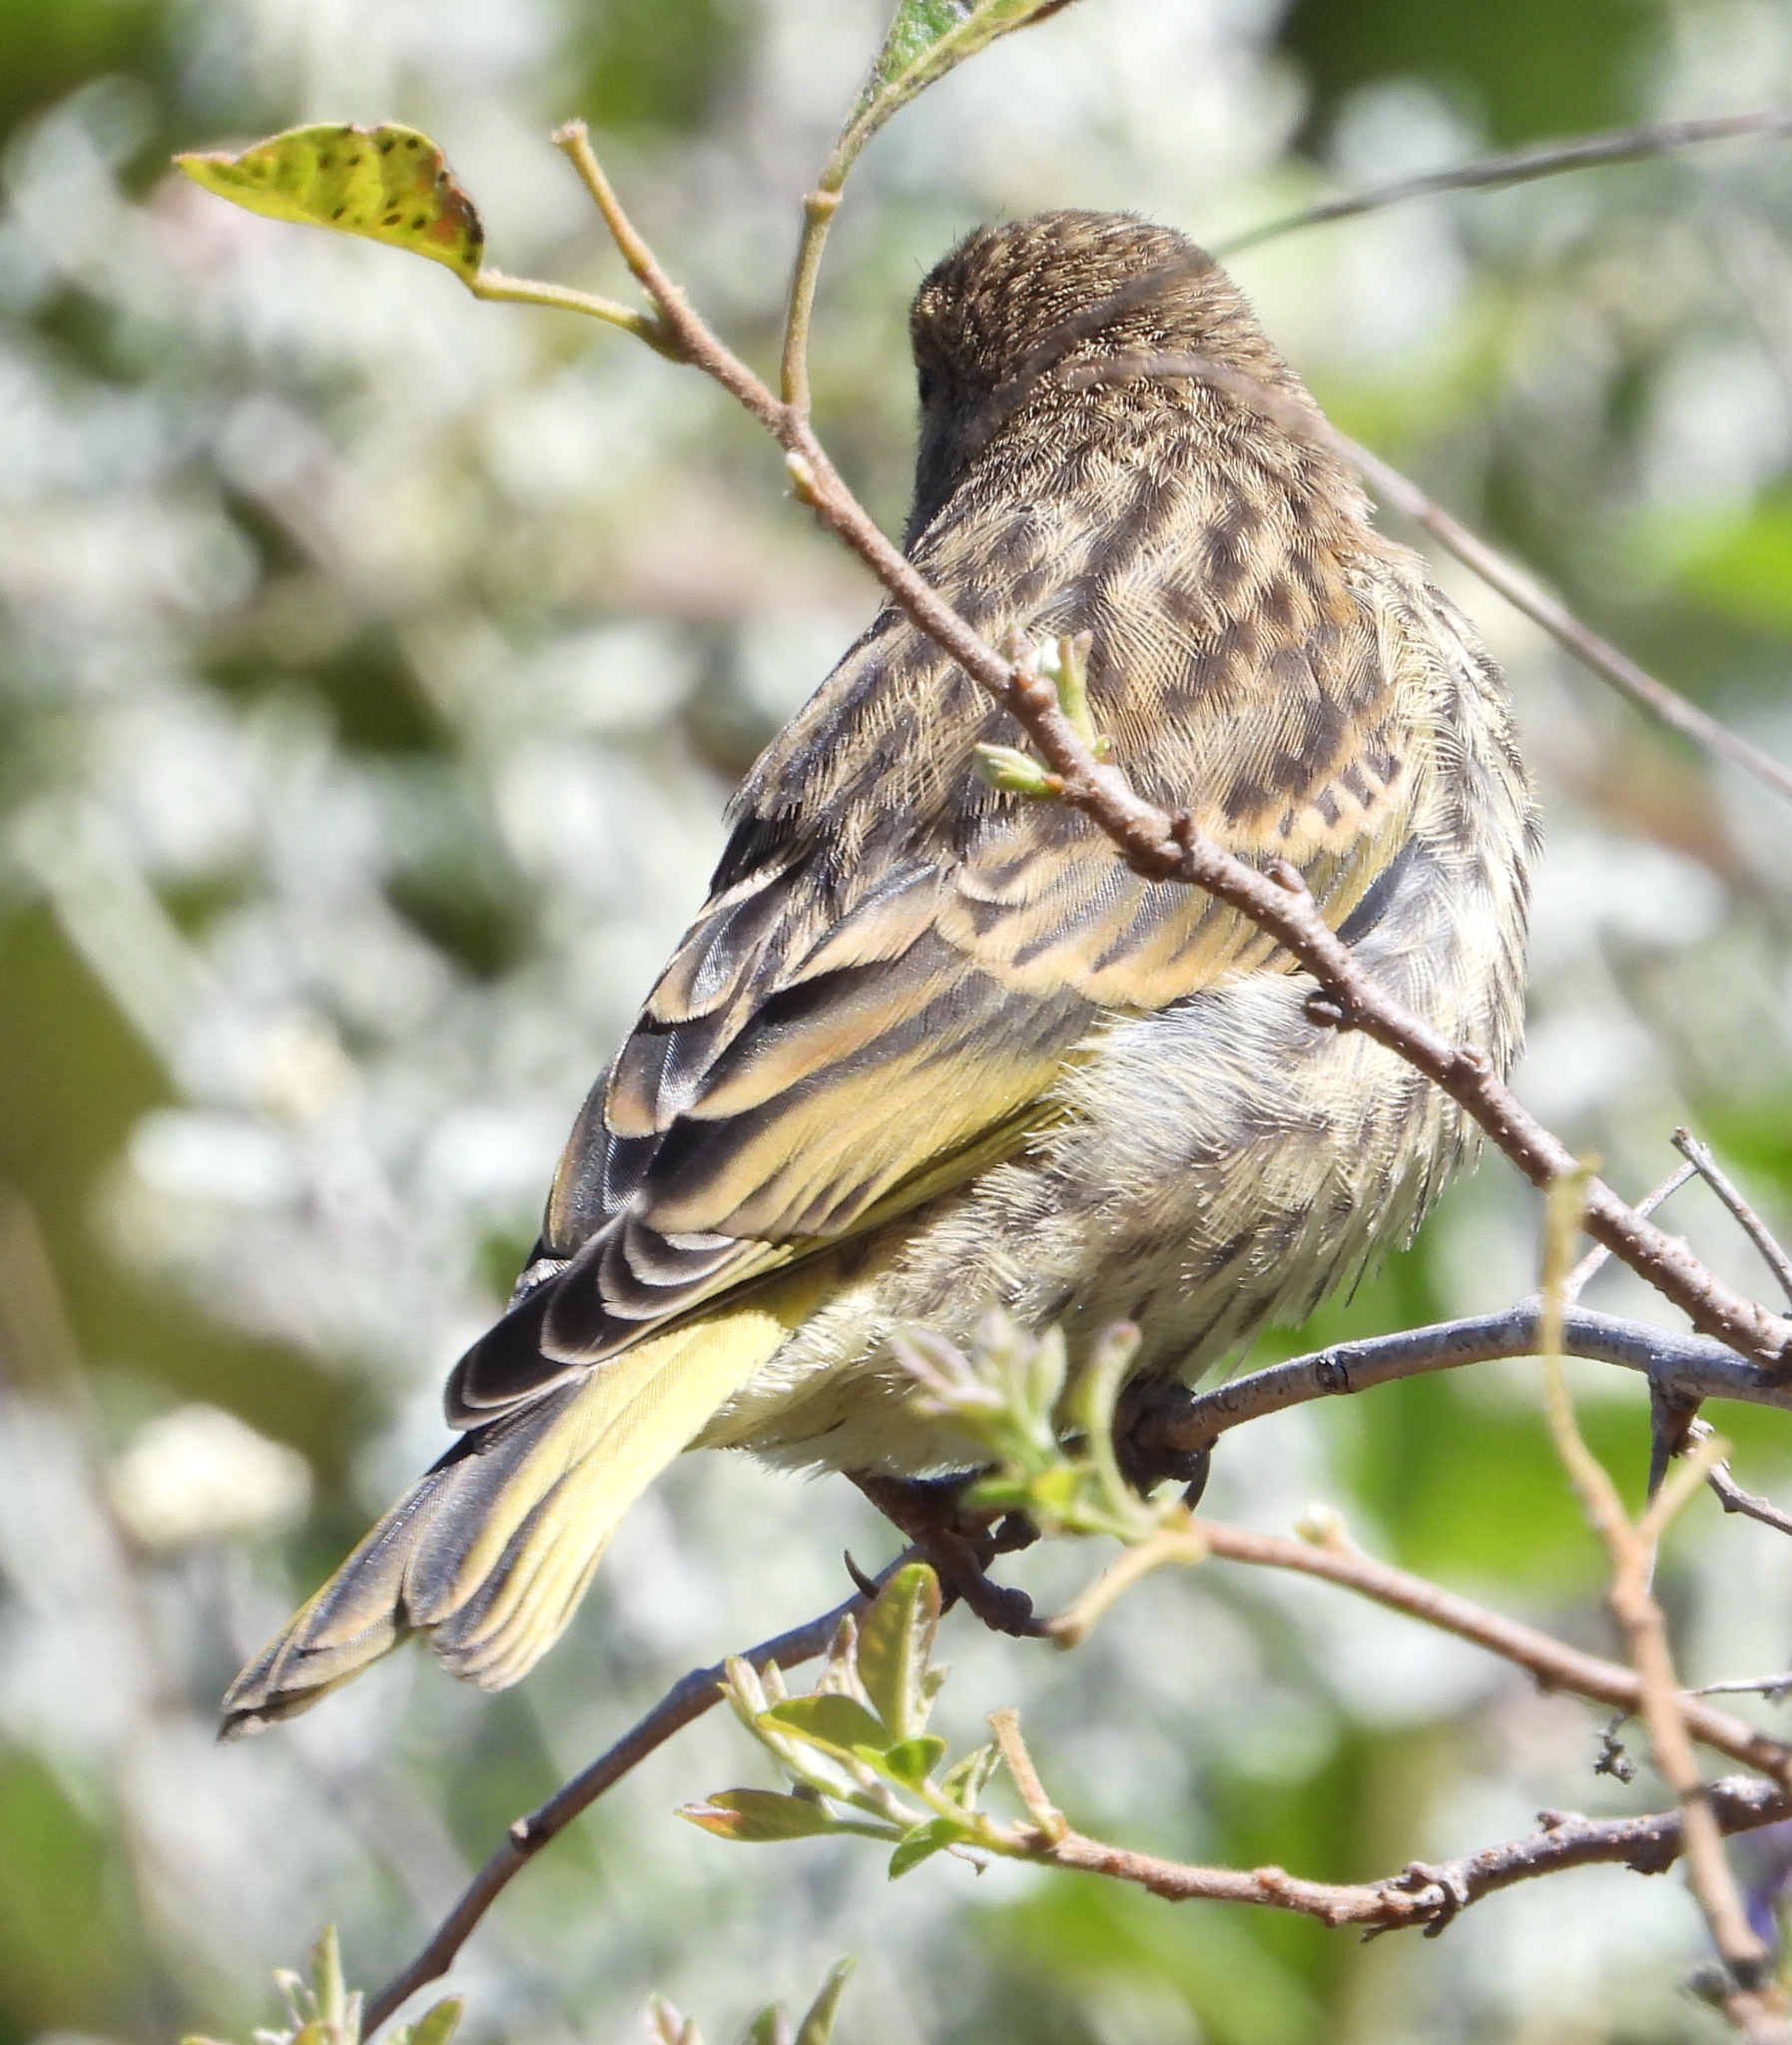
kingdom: Animalia
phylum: Chordata
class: Aves
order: Passeriformes
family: Fringillidae
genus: Serinus
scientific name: Serinus canicollis
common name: Cape canary
